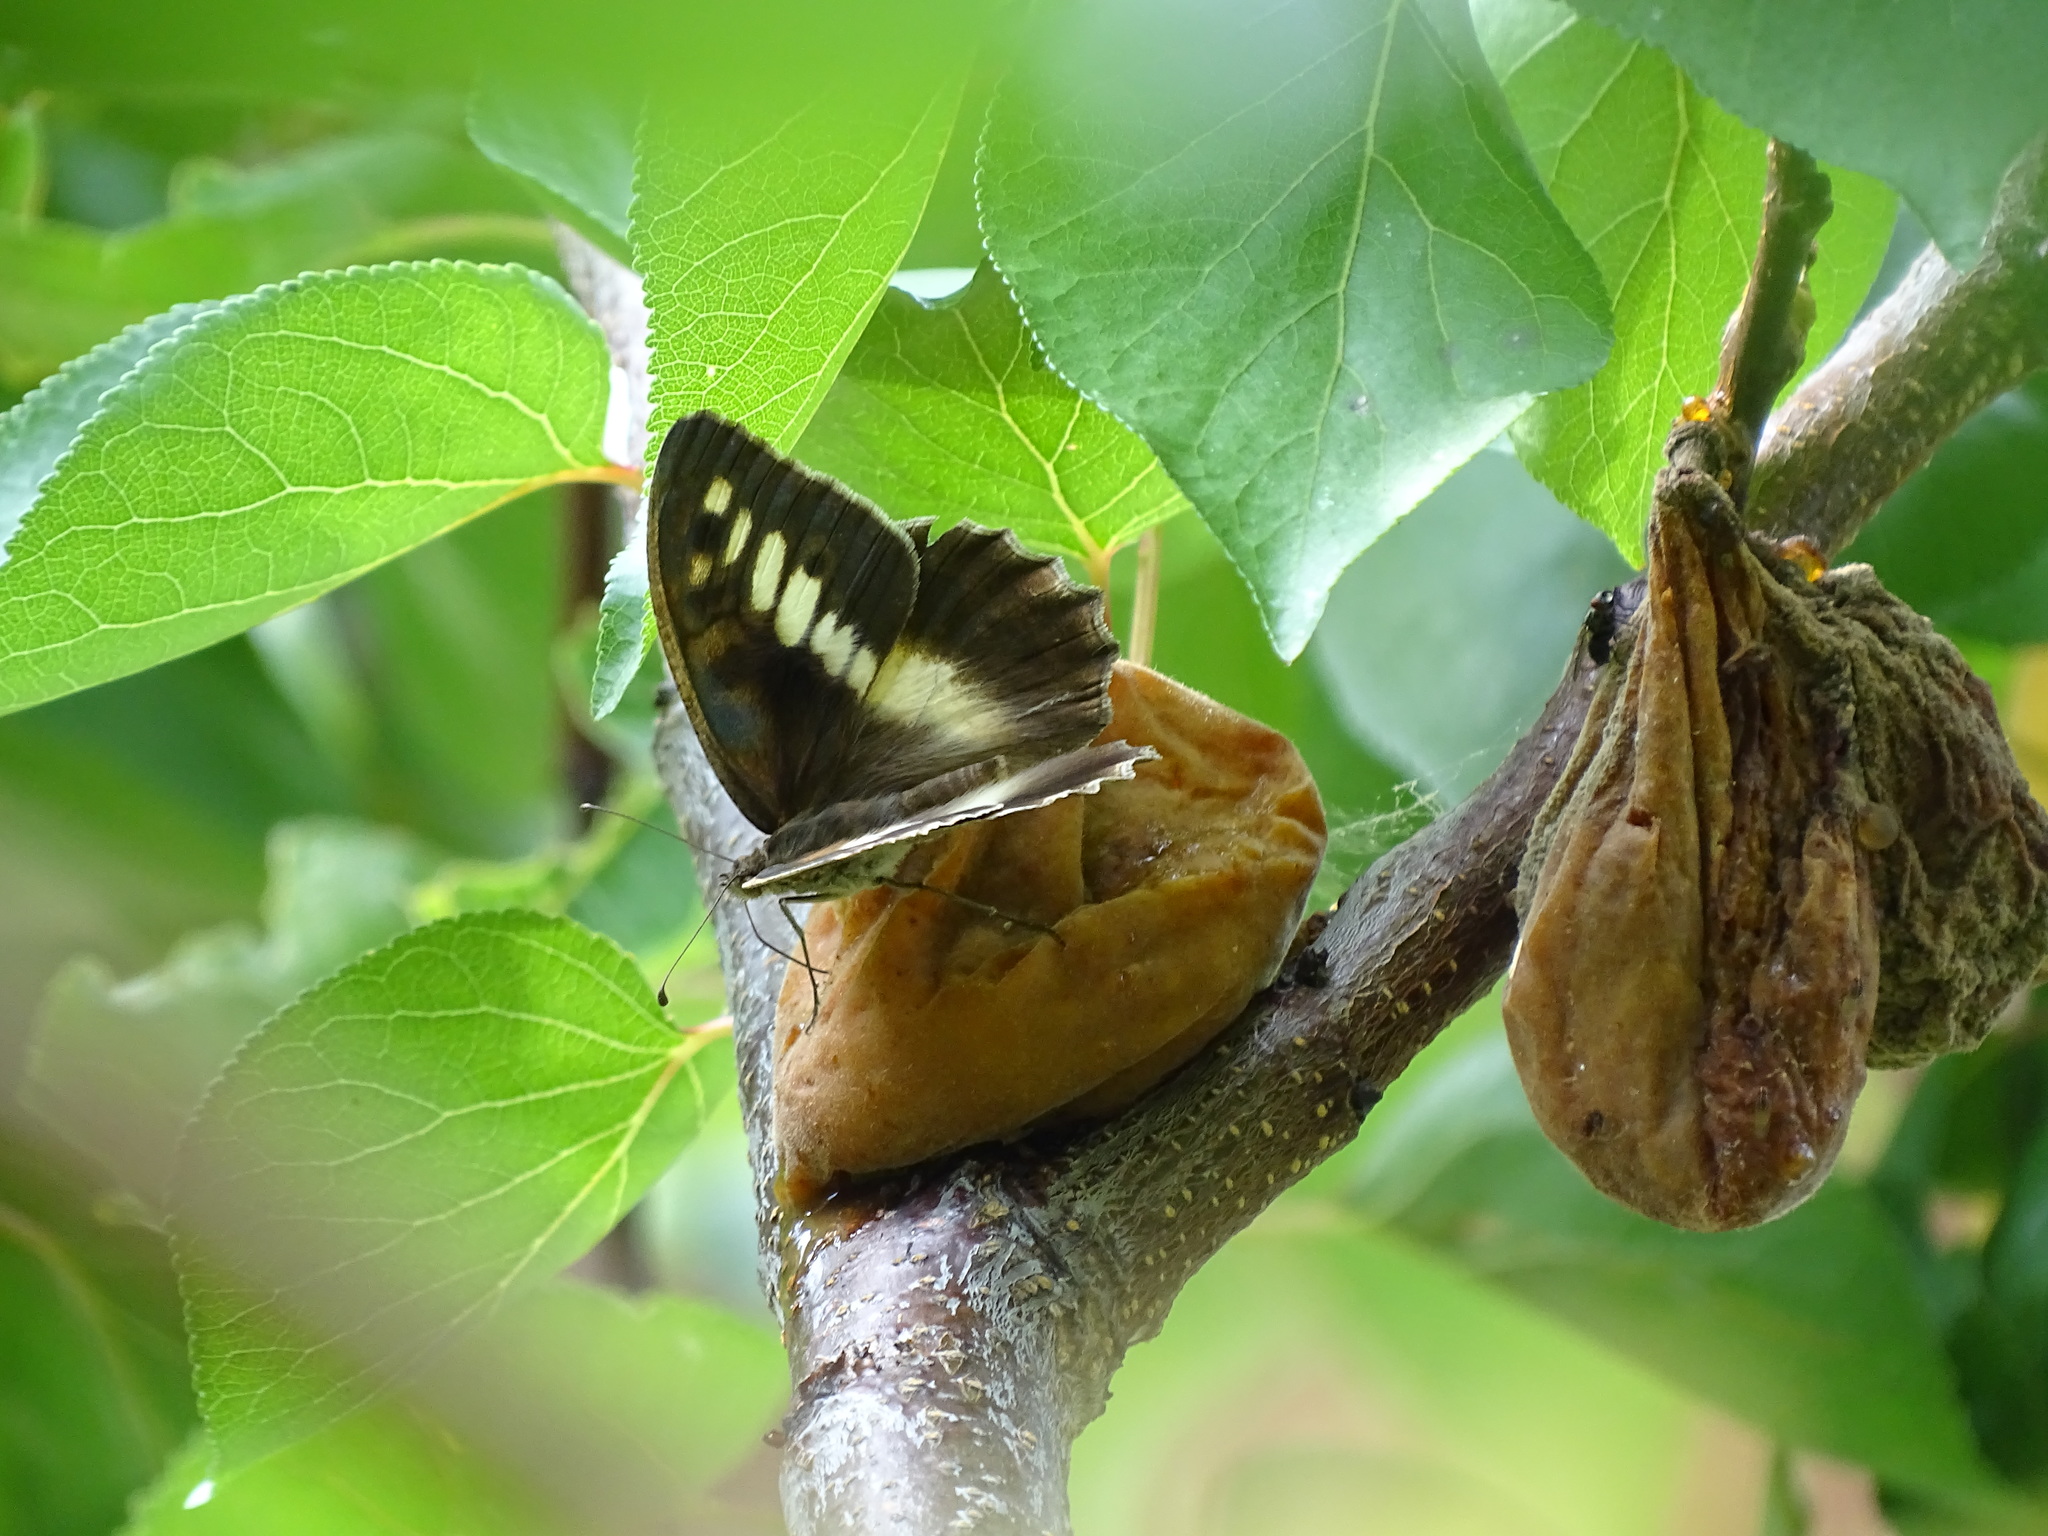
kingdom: Animalia
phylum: Arthropoda
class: Insecta
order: Lepidoptera
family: Nymphalidae
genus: Satyrus
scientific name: Satyrus briseis
